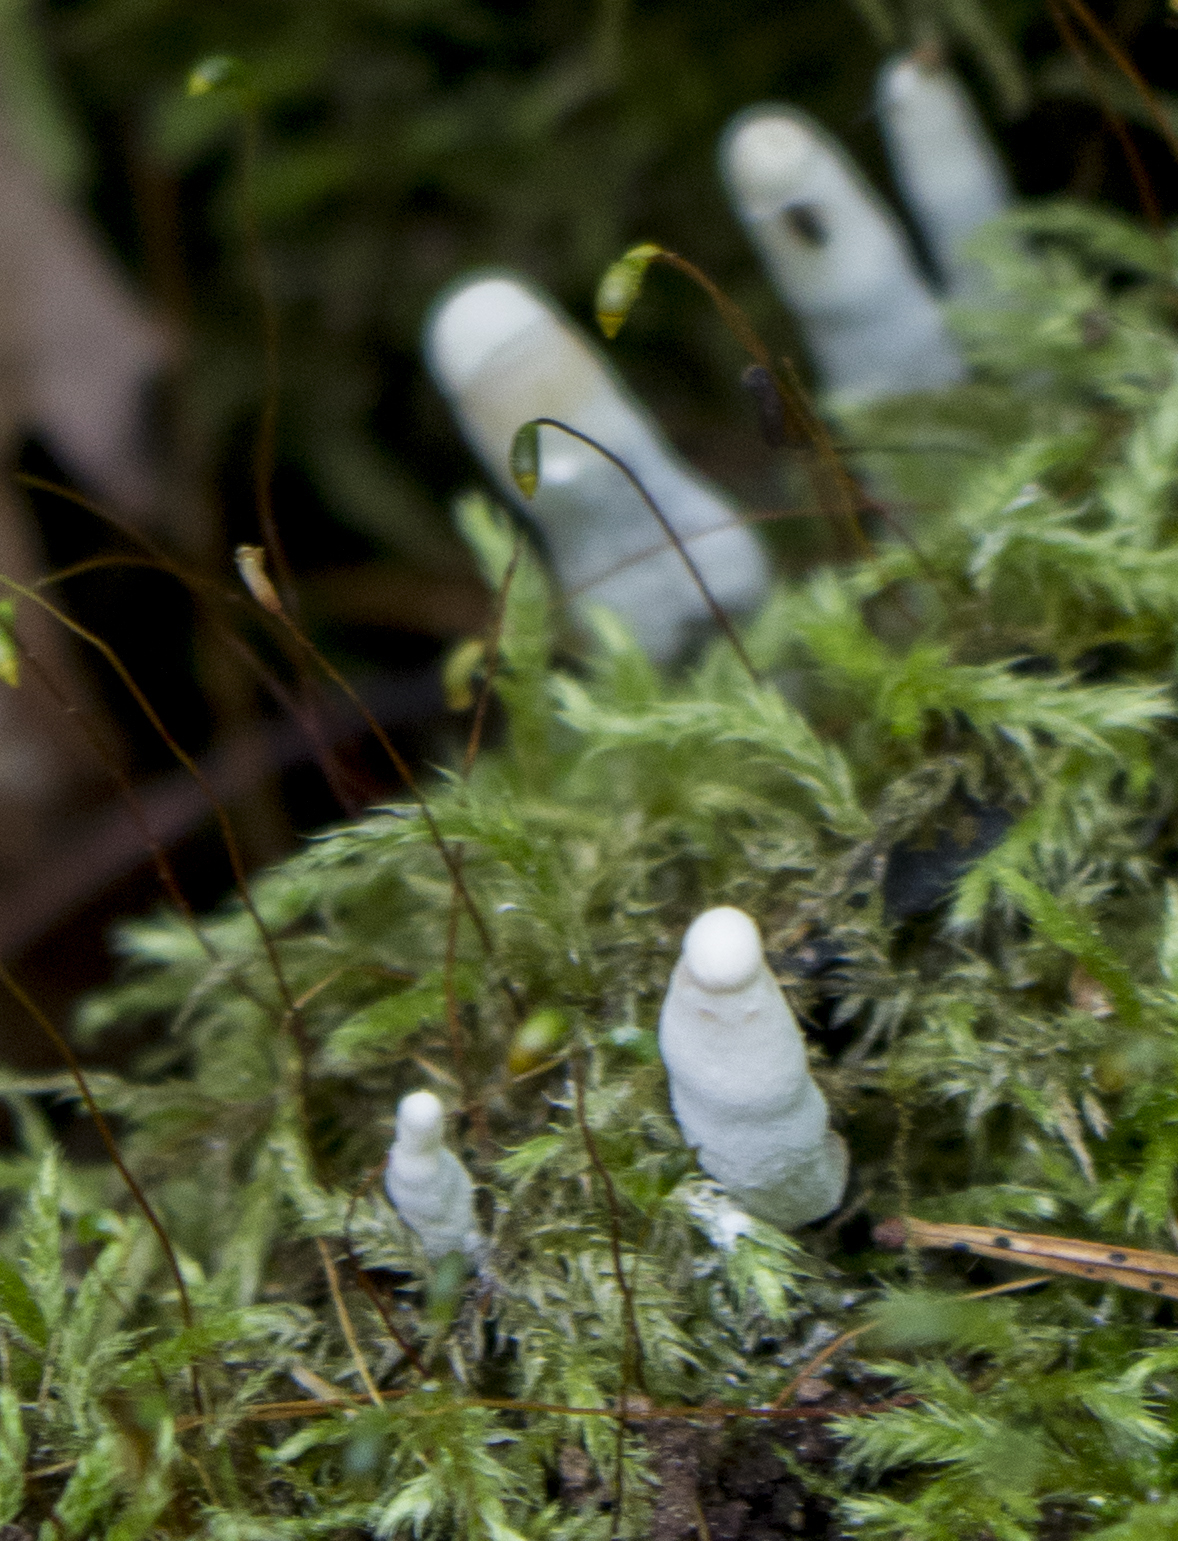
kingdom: Fungi
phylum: Ascomycota
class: Sordariomycetes
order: Xylariales
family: Xylariaceae
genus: Xylaria
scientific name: Xylaria polymorpha
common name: Dead man's fingers
